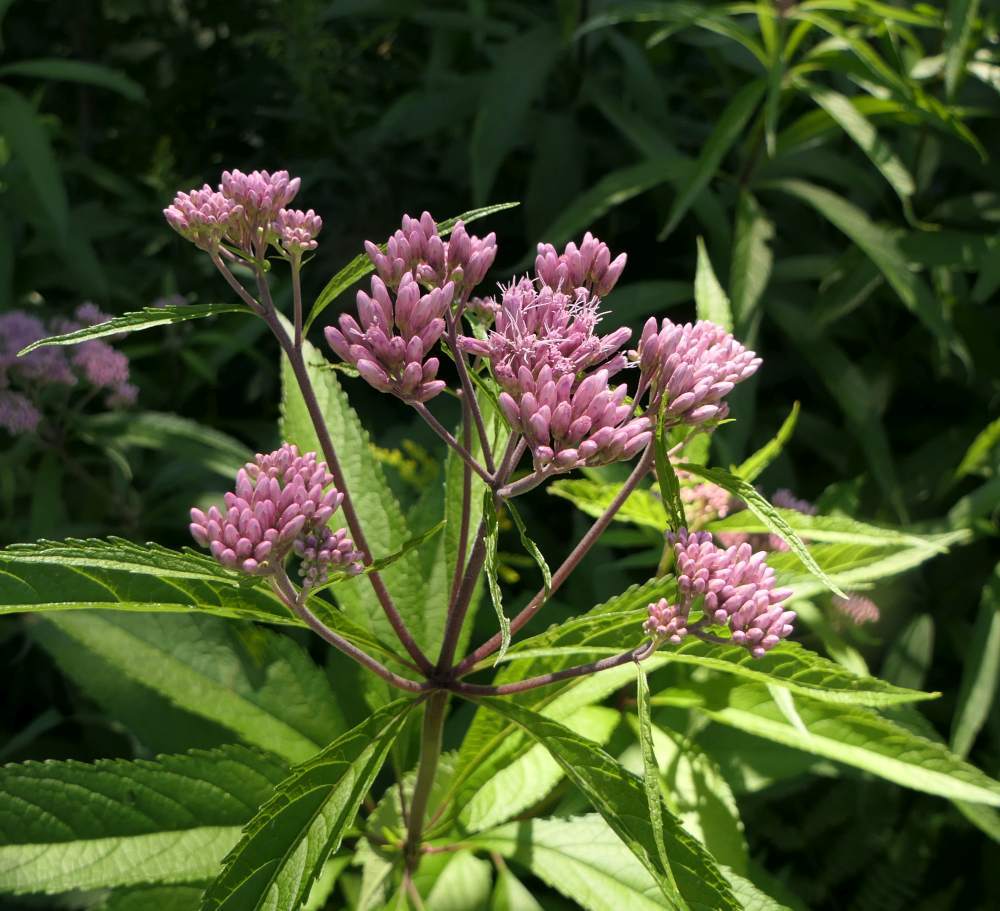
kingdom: Plantae
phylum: Tracheophyta
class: Magnoliopsida
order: Asterales
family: Asteraceae
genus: Eutrochium
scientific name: Eutrochium maculatum
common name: Spotted joe pye weed
